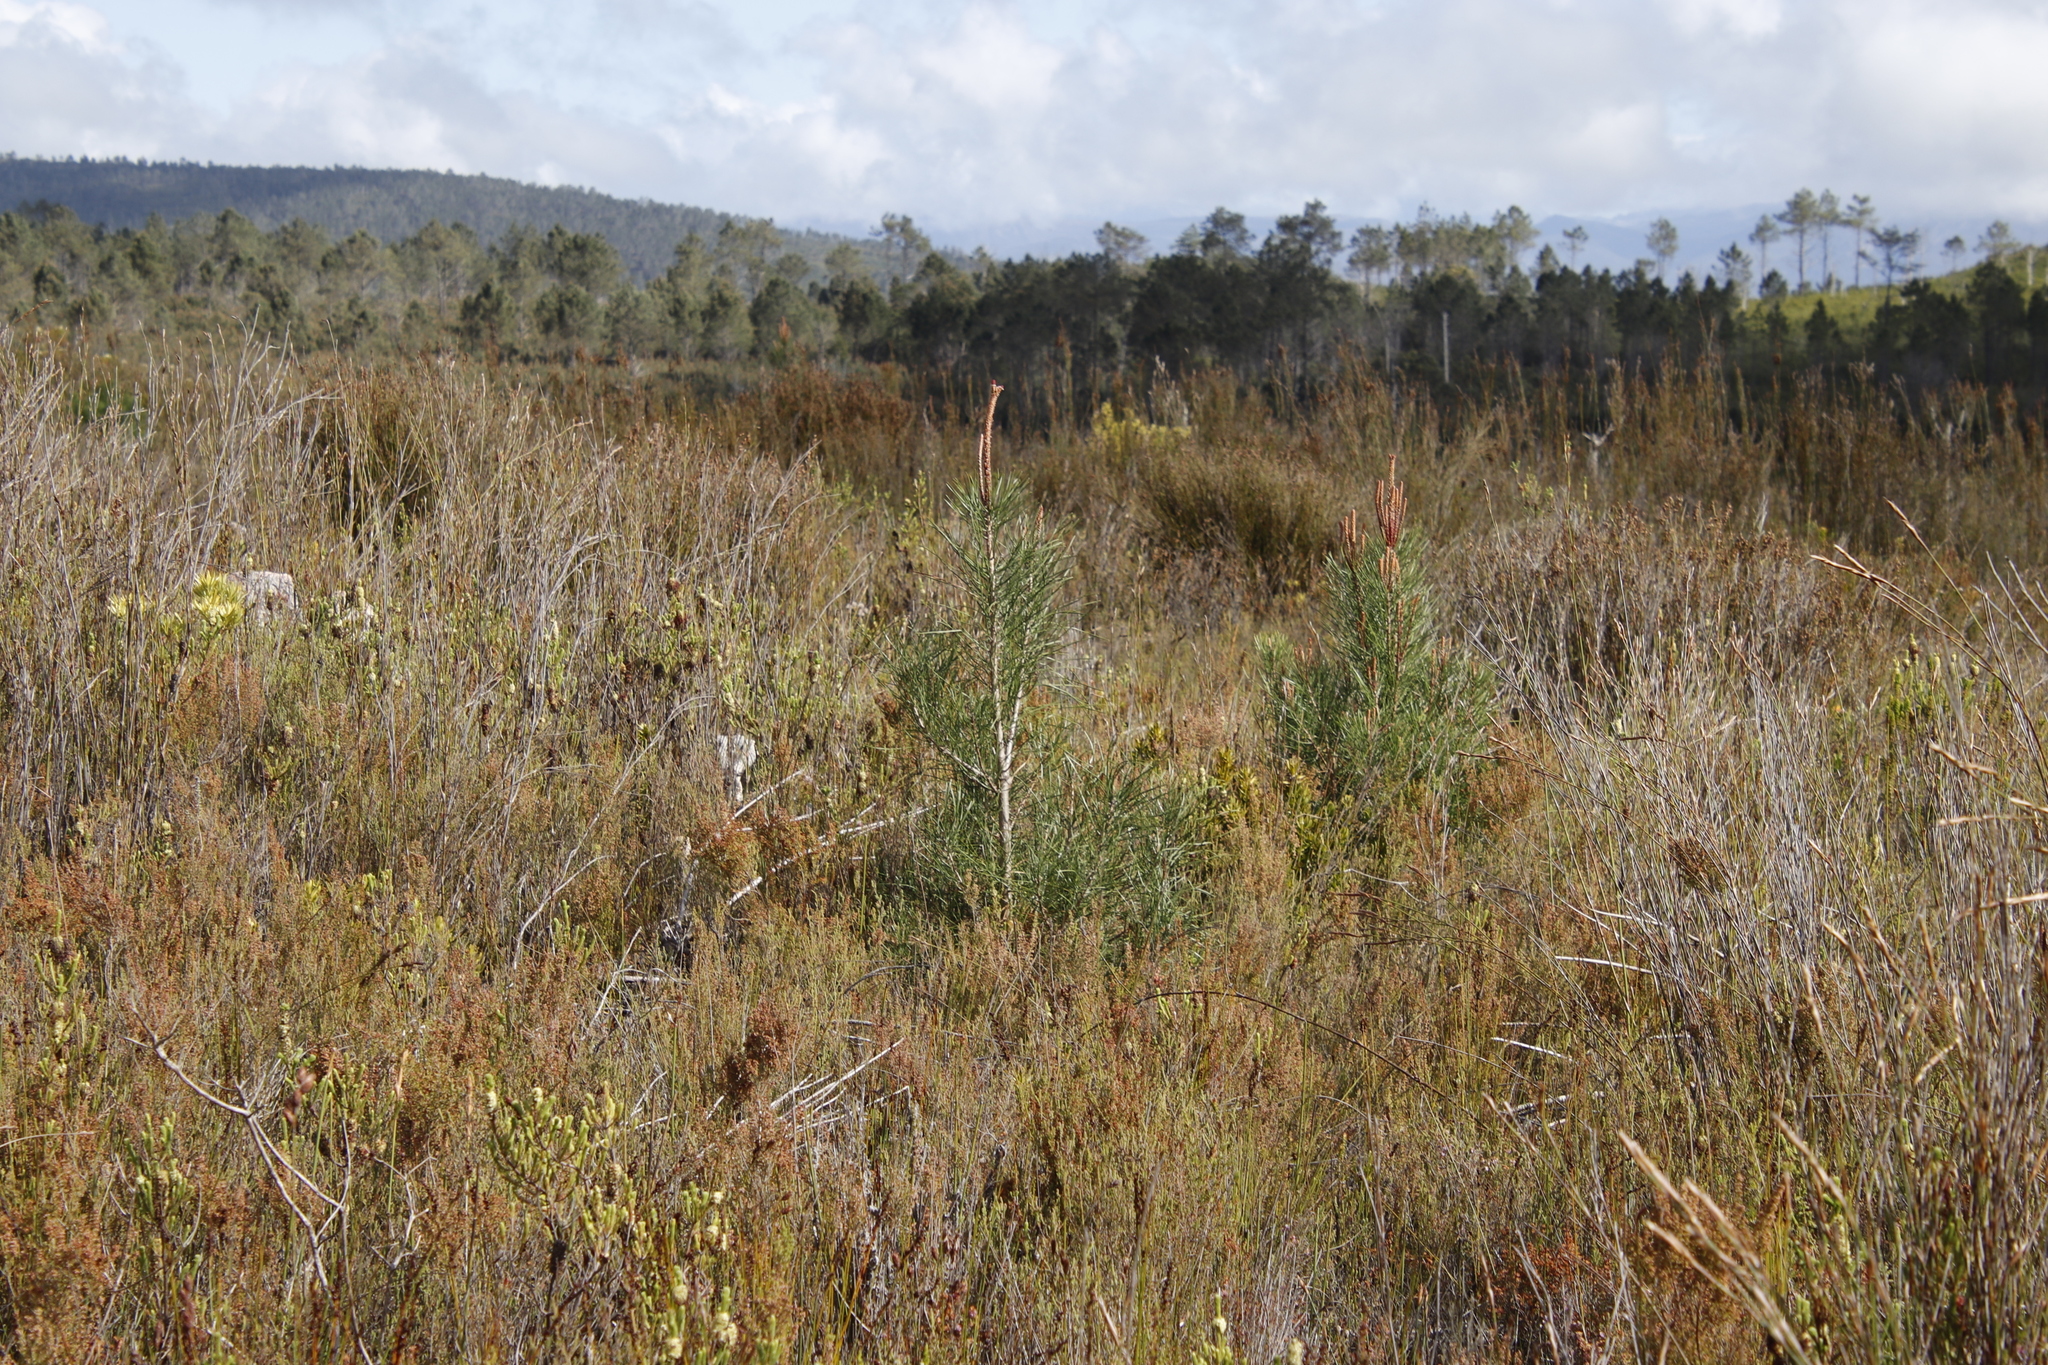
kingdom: Plantae
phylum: Tracheophyta
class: Pinopsida
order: Pinales
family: Pinaceae
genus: Pinus
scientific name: Pinus pinaster
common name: Maritime pine
